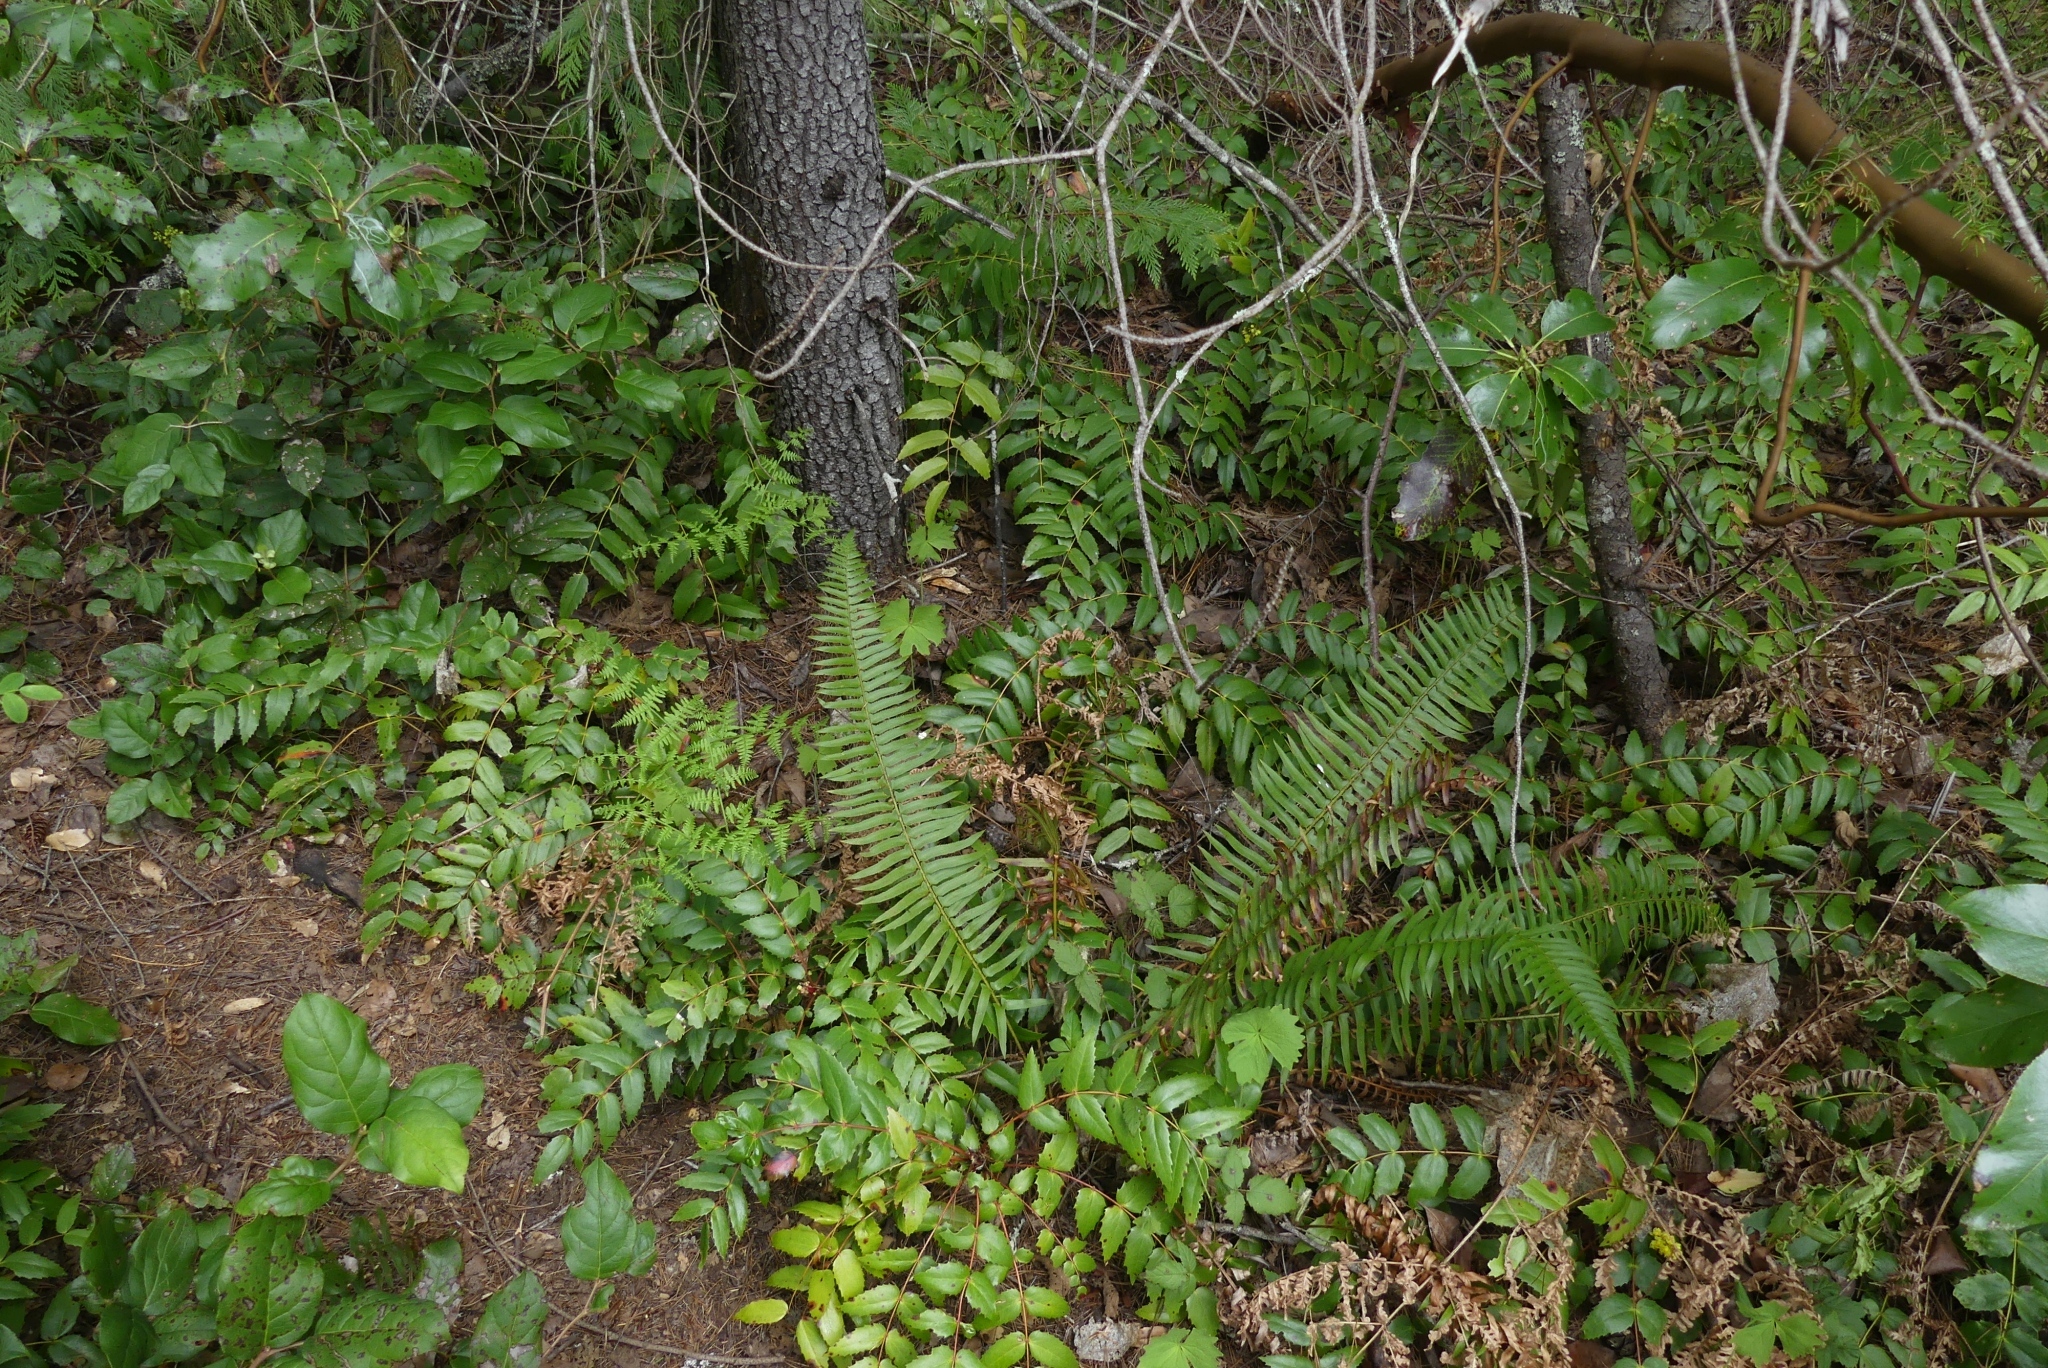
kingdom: Plantae
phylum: Tracheophyta
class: Polypodiopsida
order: Polypodiales
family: Dryopteridaceae
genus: Polystichum
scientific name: Polystichum munitum
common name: Western sword-fern
